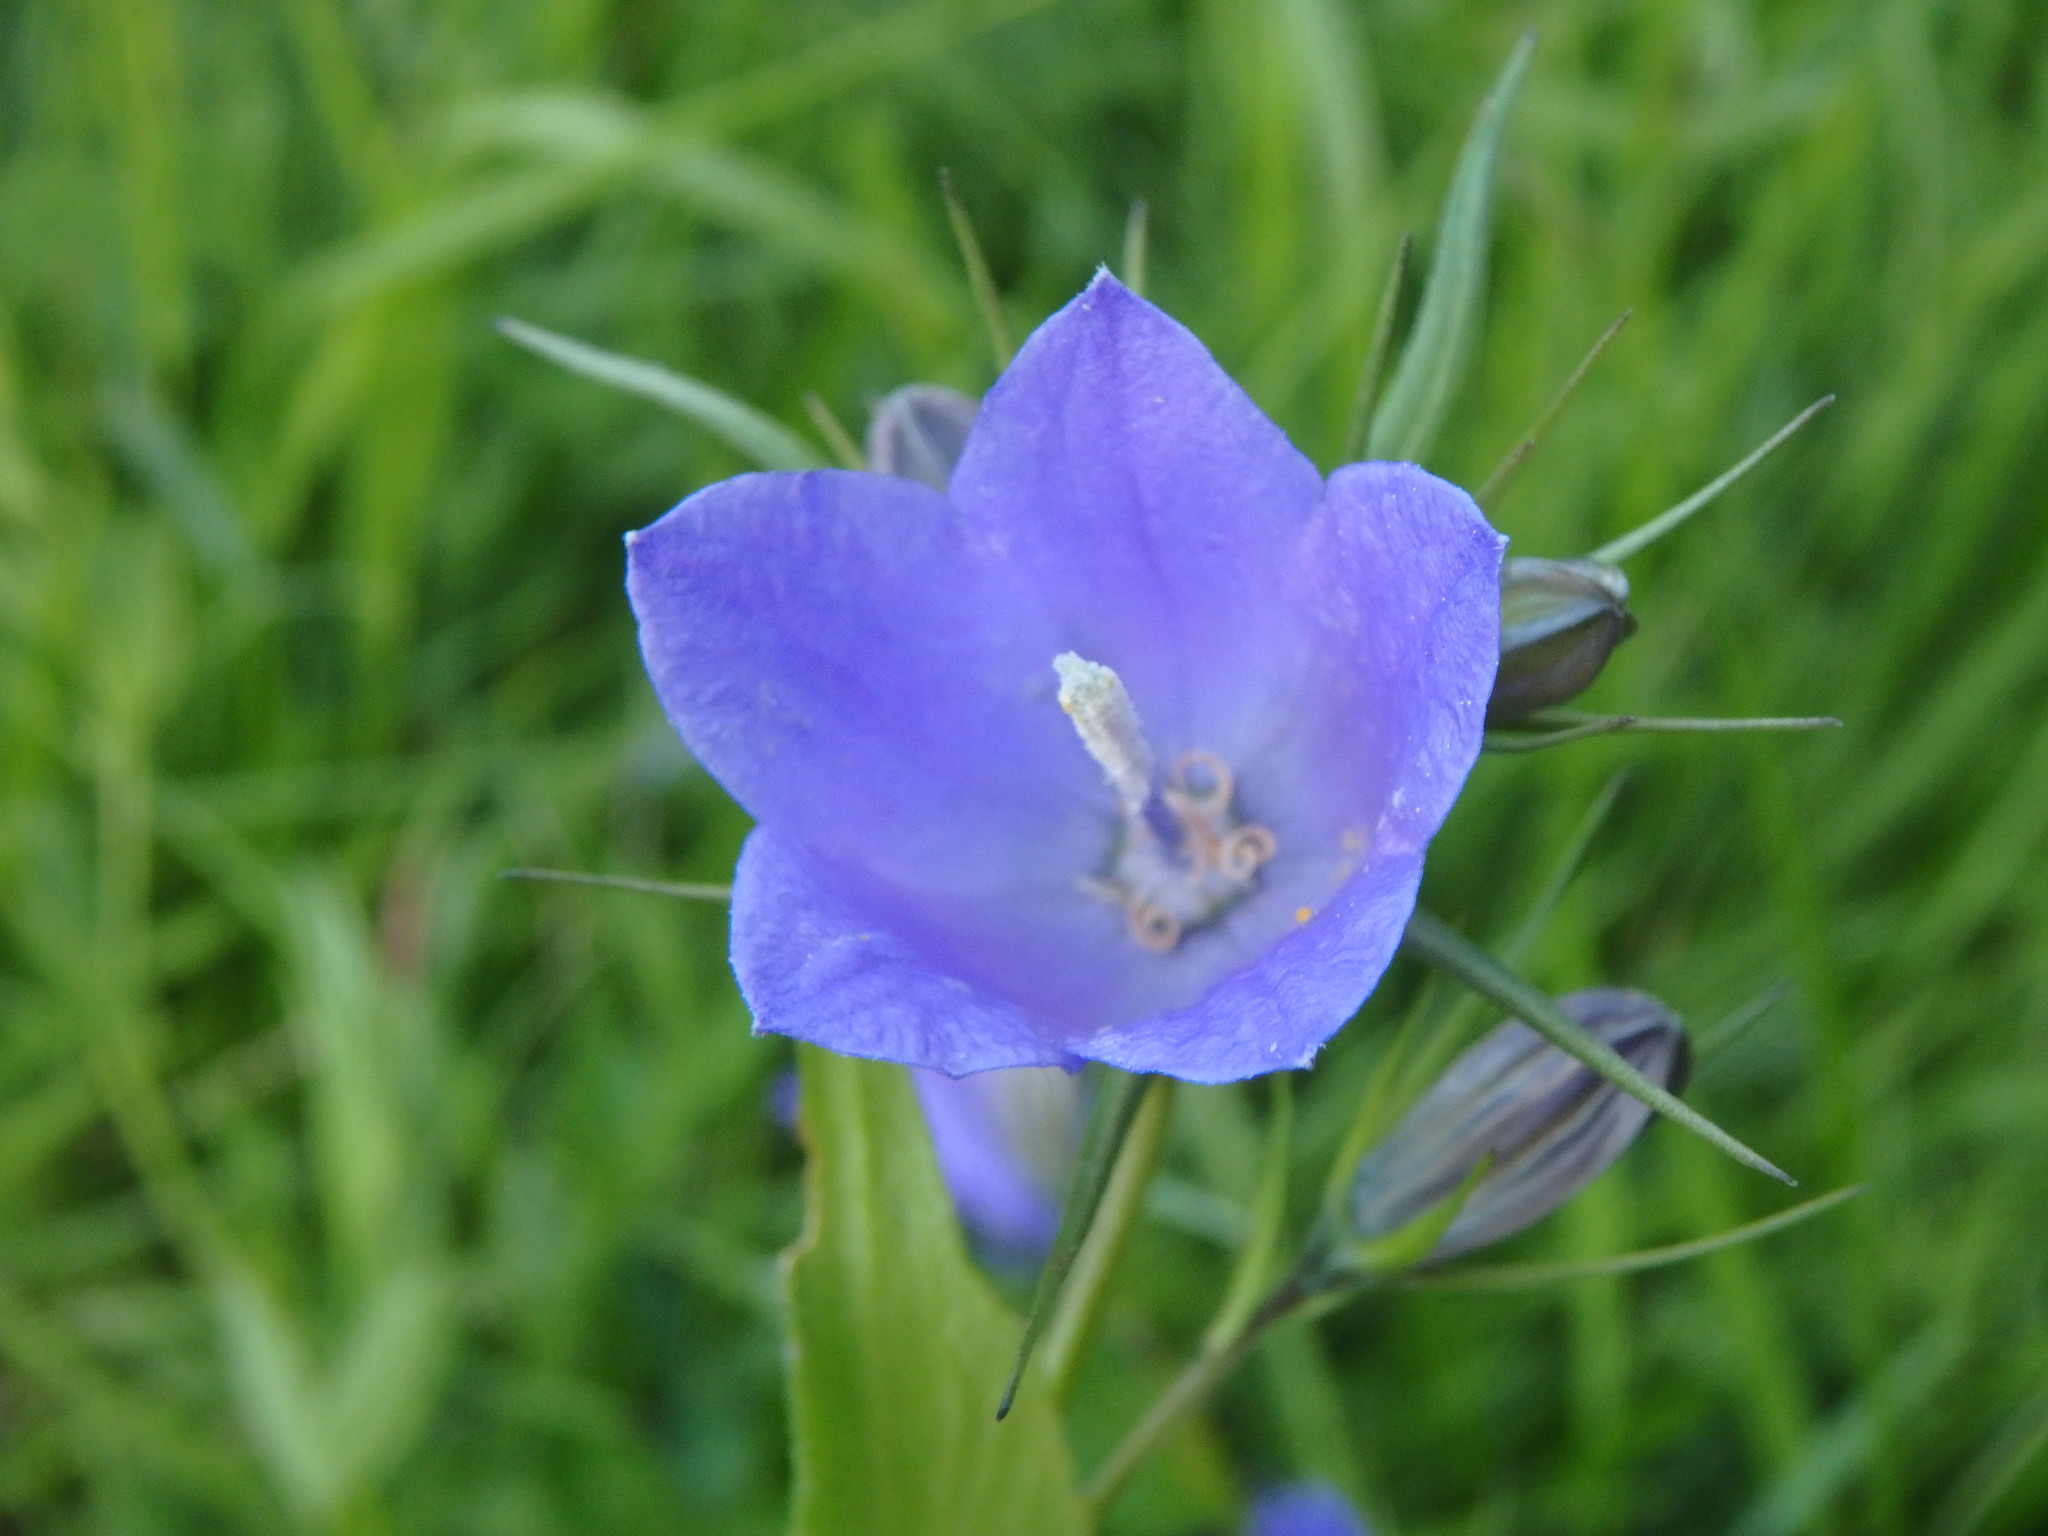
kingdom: Plantae
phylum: Tracheophyta
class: Magnoliopsida
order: Asterales
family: Campanulaceae
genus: Campanula
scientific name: Campanula rhomboidalis
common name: Broad-leaved harebell
